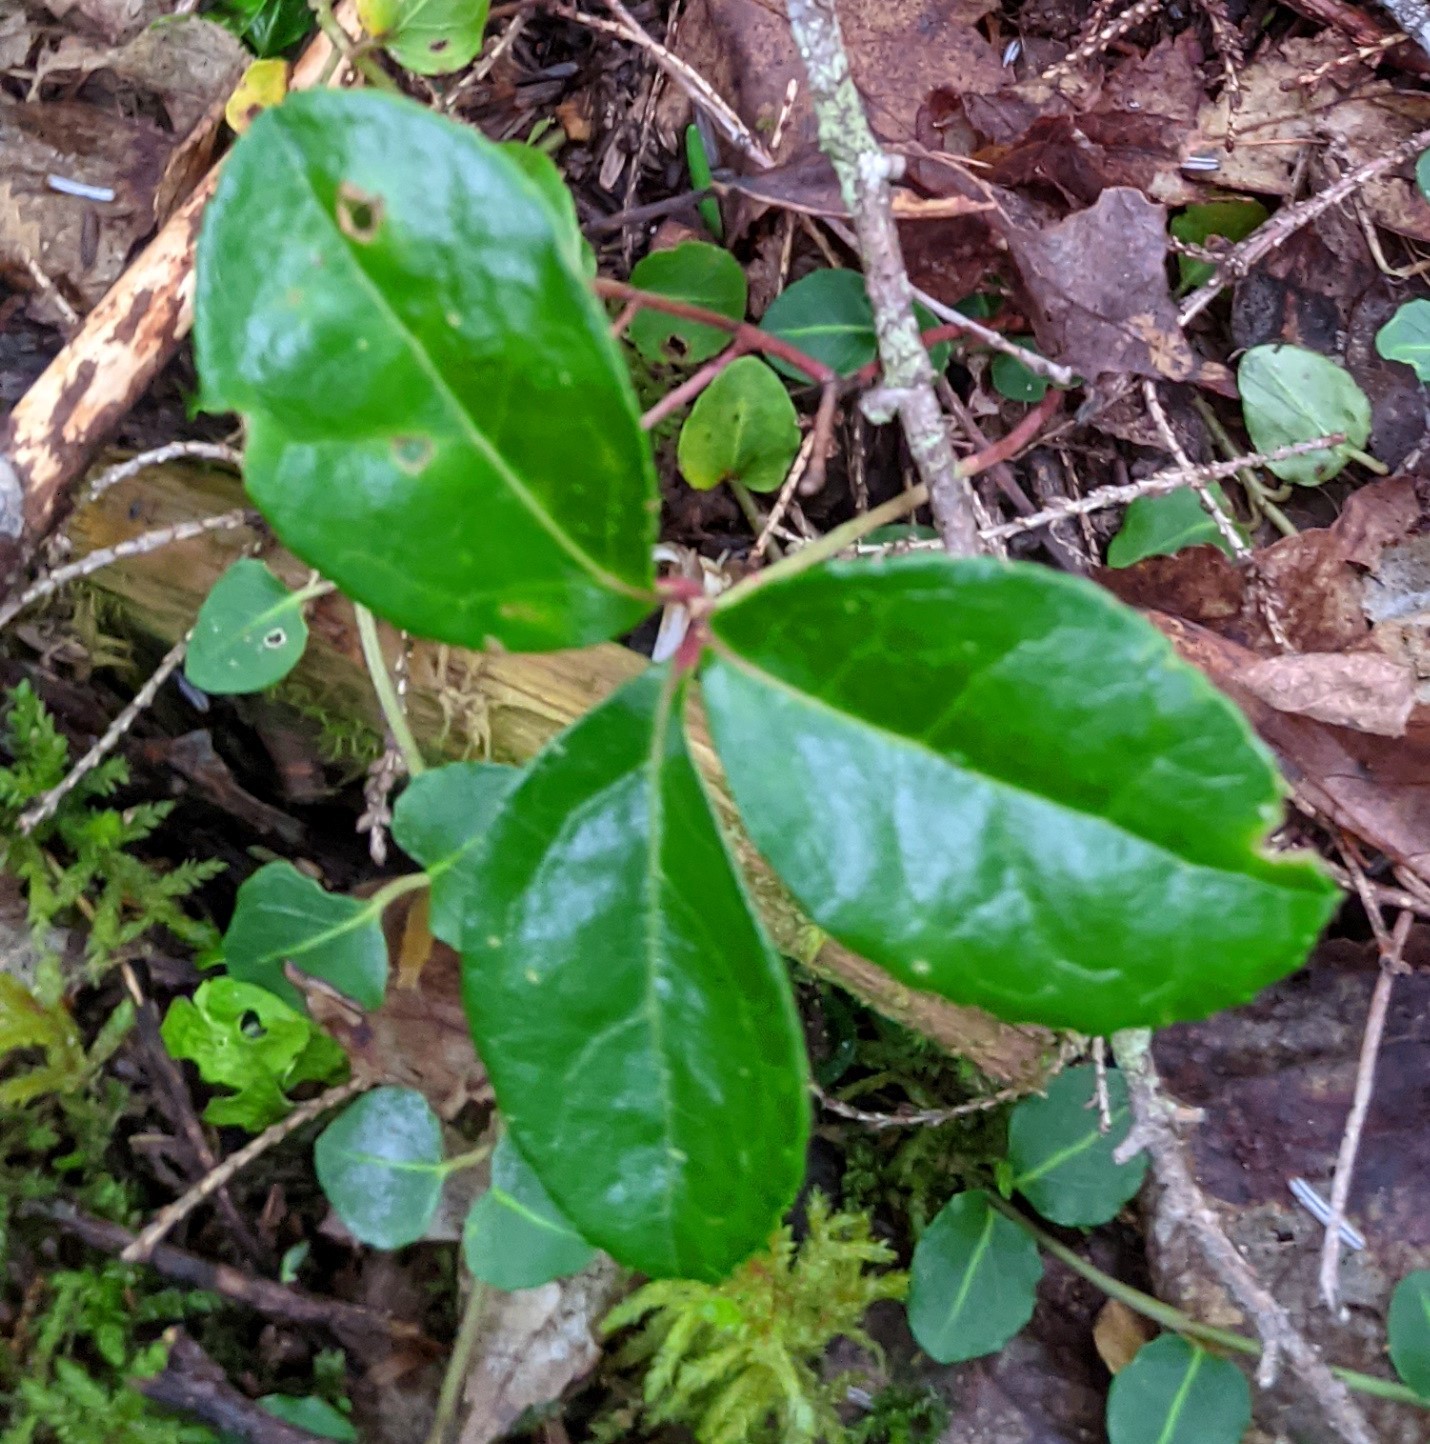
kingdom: Plantae
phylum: Tracheophyta
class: Magnoliopsida
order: Ericales
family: Ericaceae
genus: Gaultheria
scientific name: Gaultheria procumbens
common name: Checkerberry
